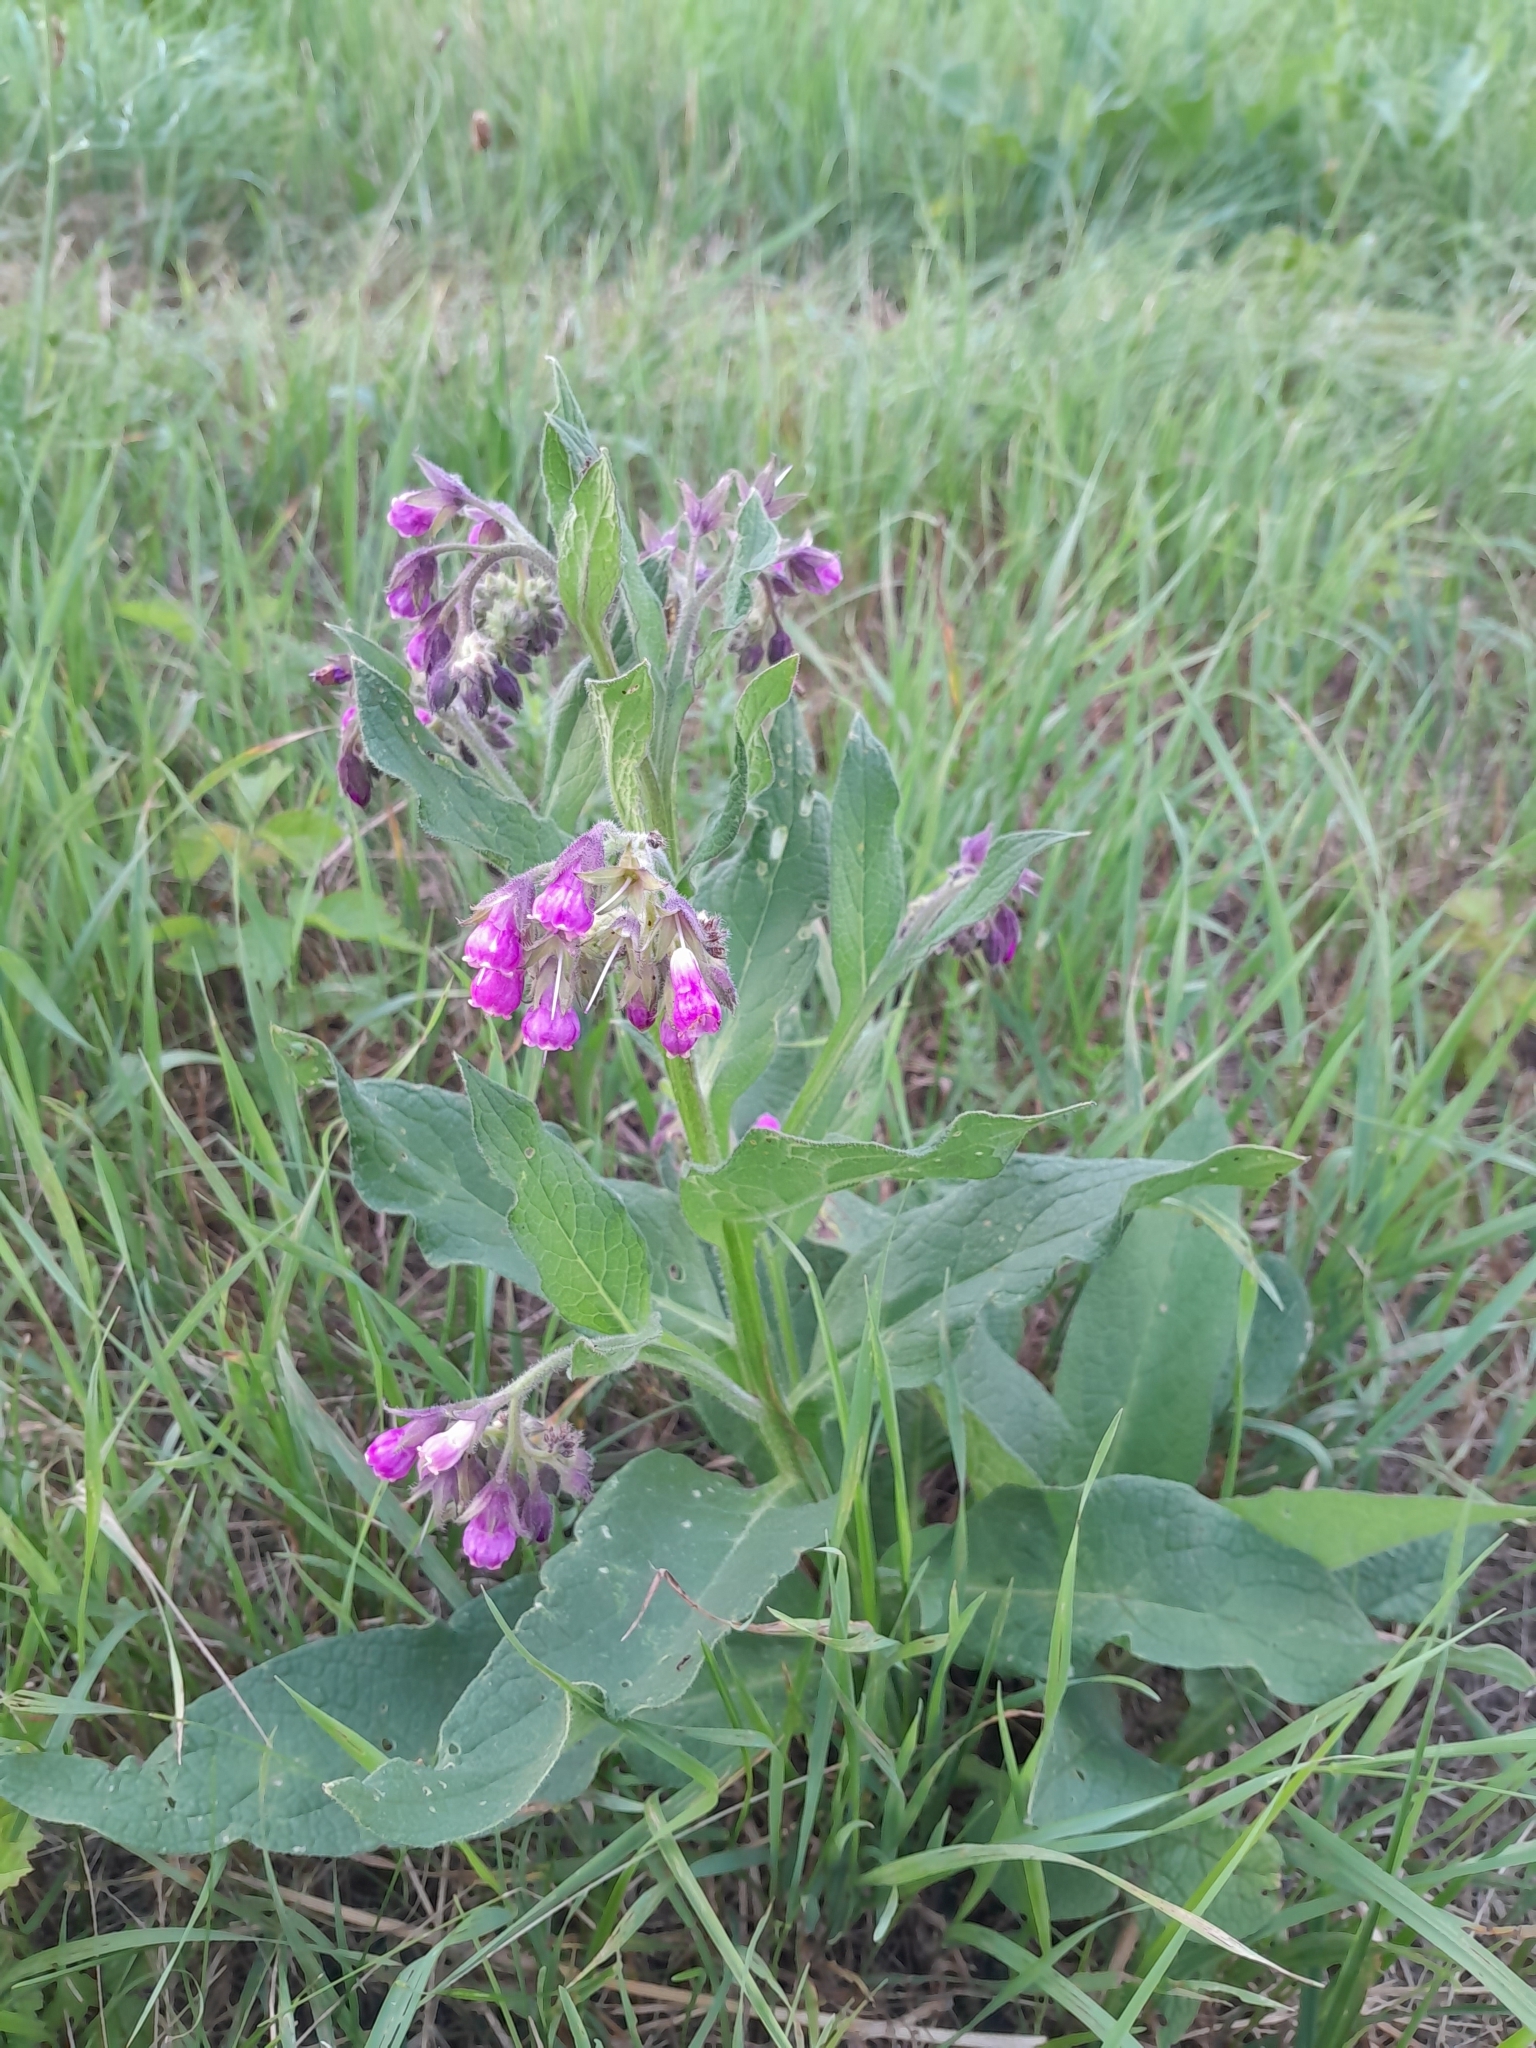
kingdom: Plantae
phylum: Tracheophyta
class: Magnoliopsida
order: Boraginales
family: Boraginaceae
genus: Symphytum
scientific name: Symphytum officinale
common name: Common comfrey
